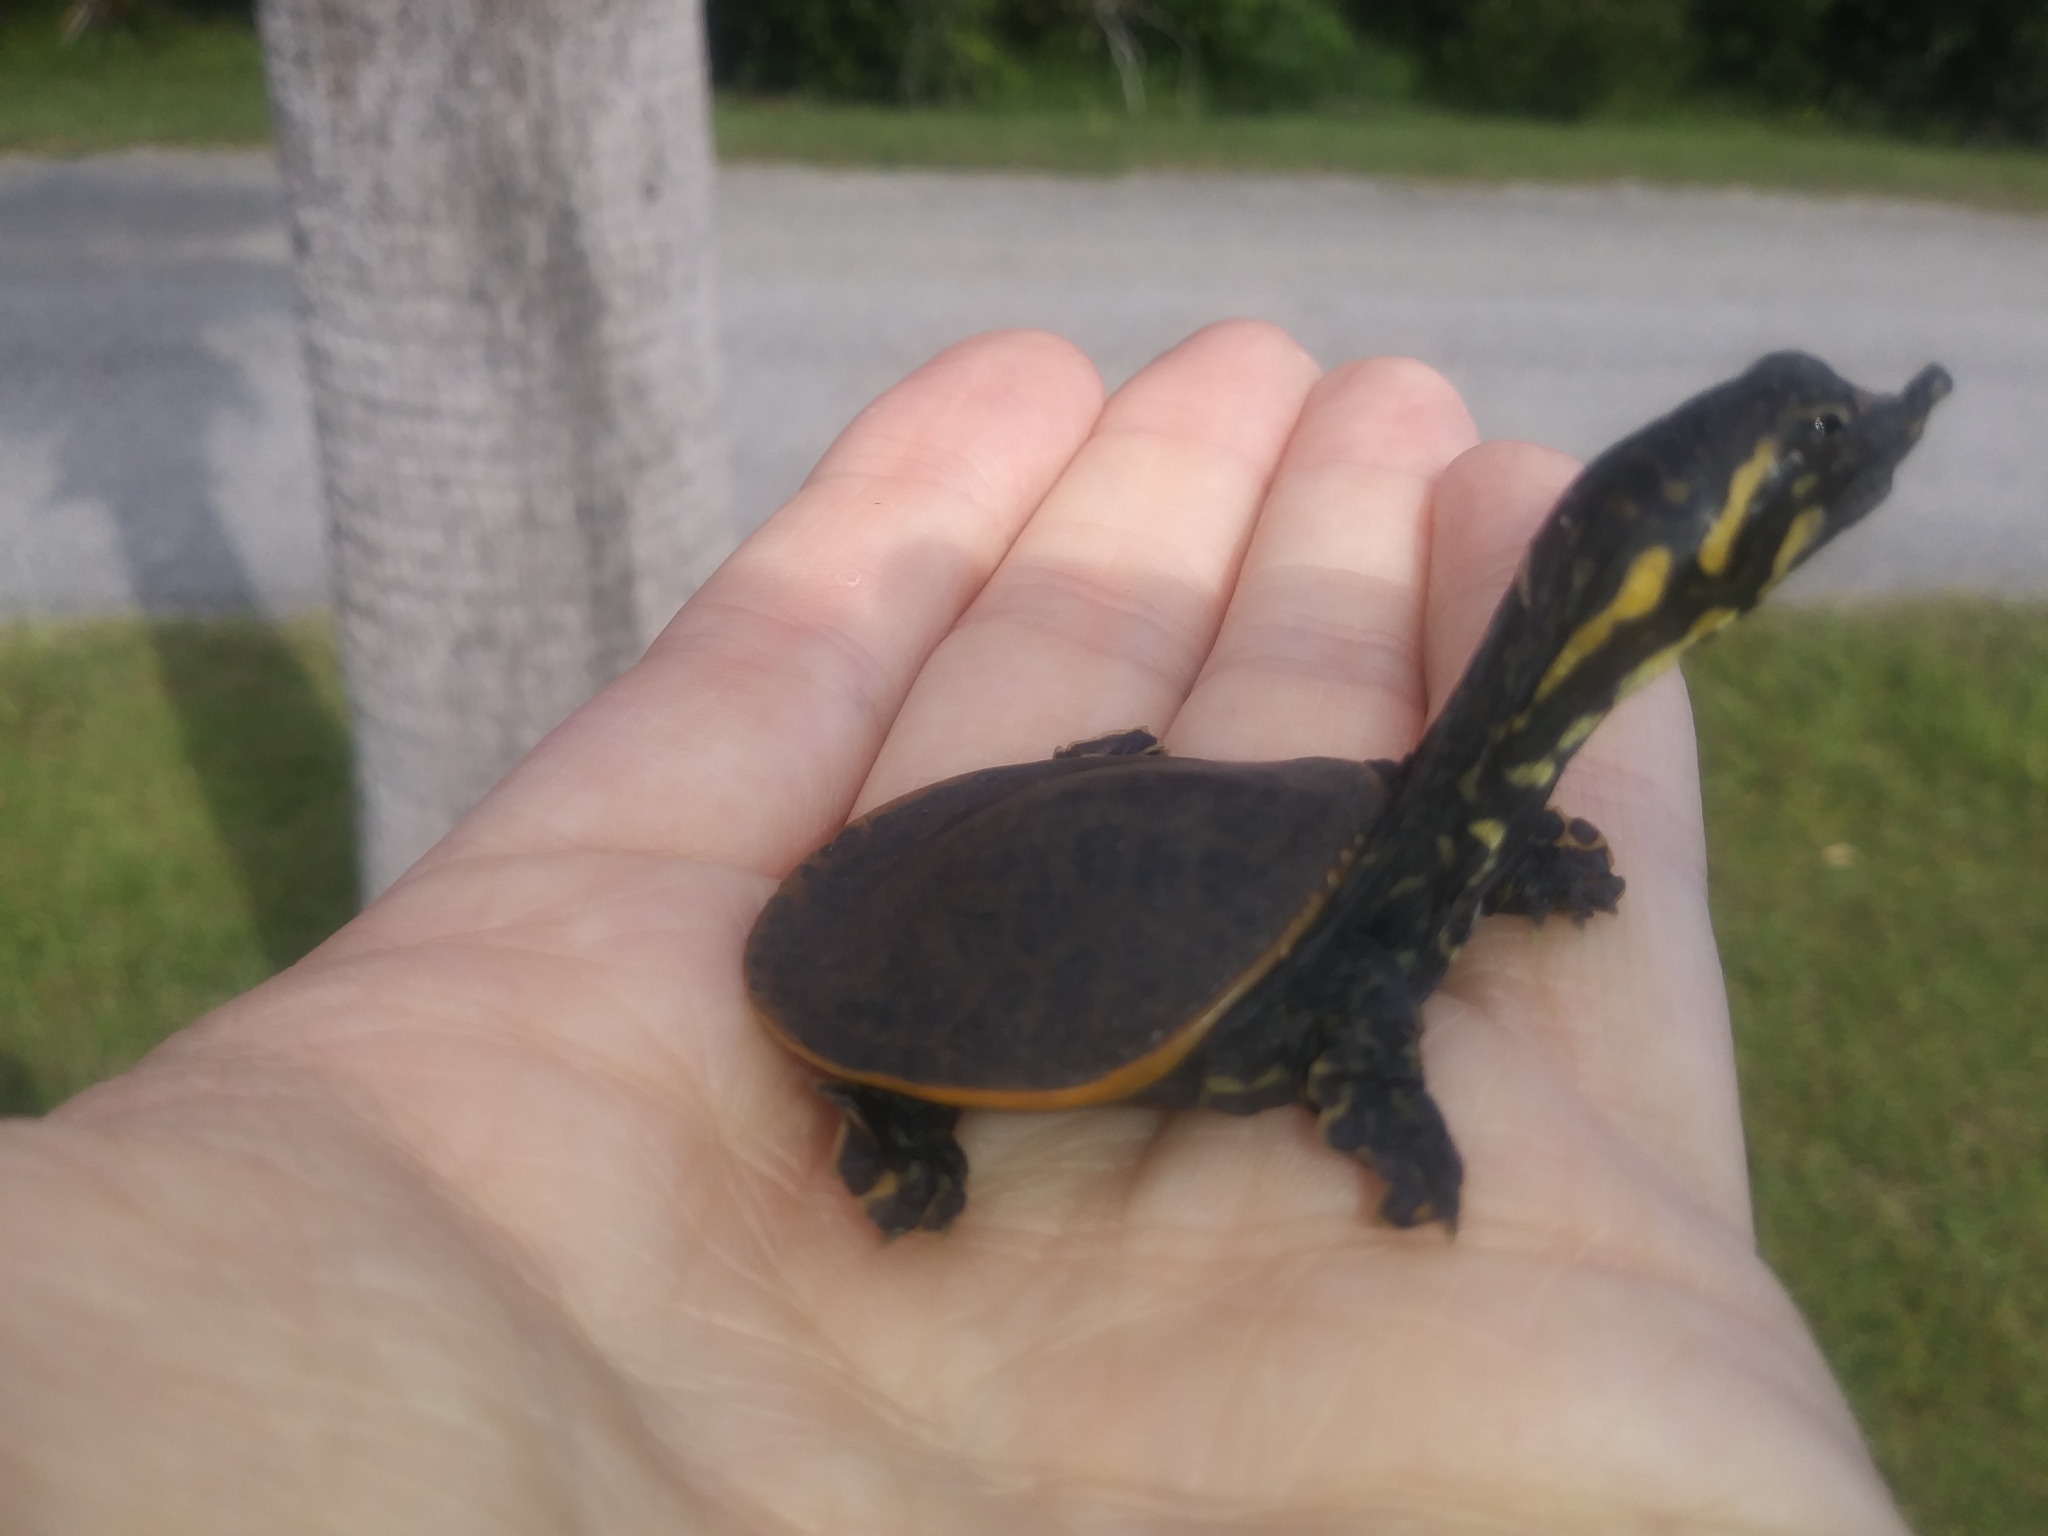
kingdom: Animalia
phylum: Chordata
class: Testudines
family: Trionychidae
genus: Apalone
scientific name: Apalone ferox
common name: Florida softshell turtle
